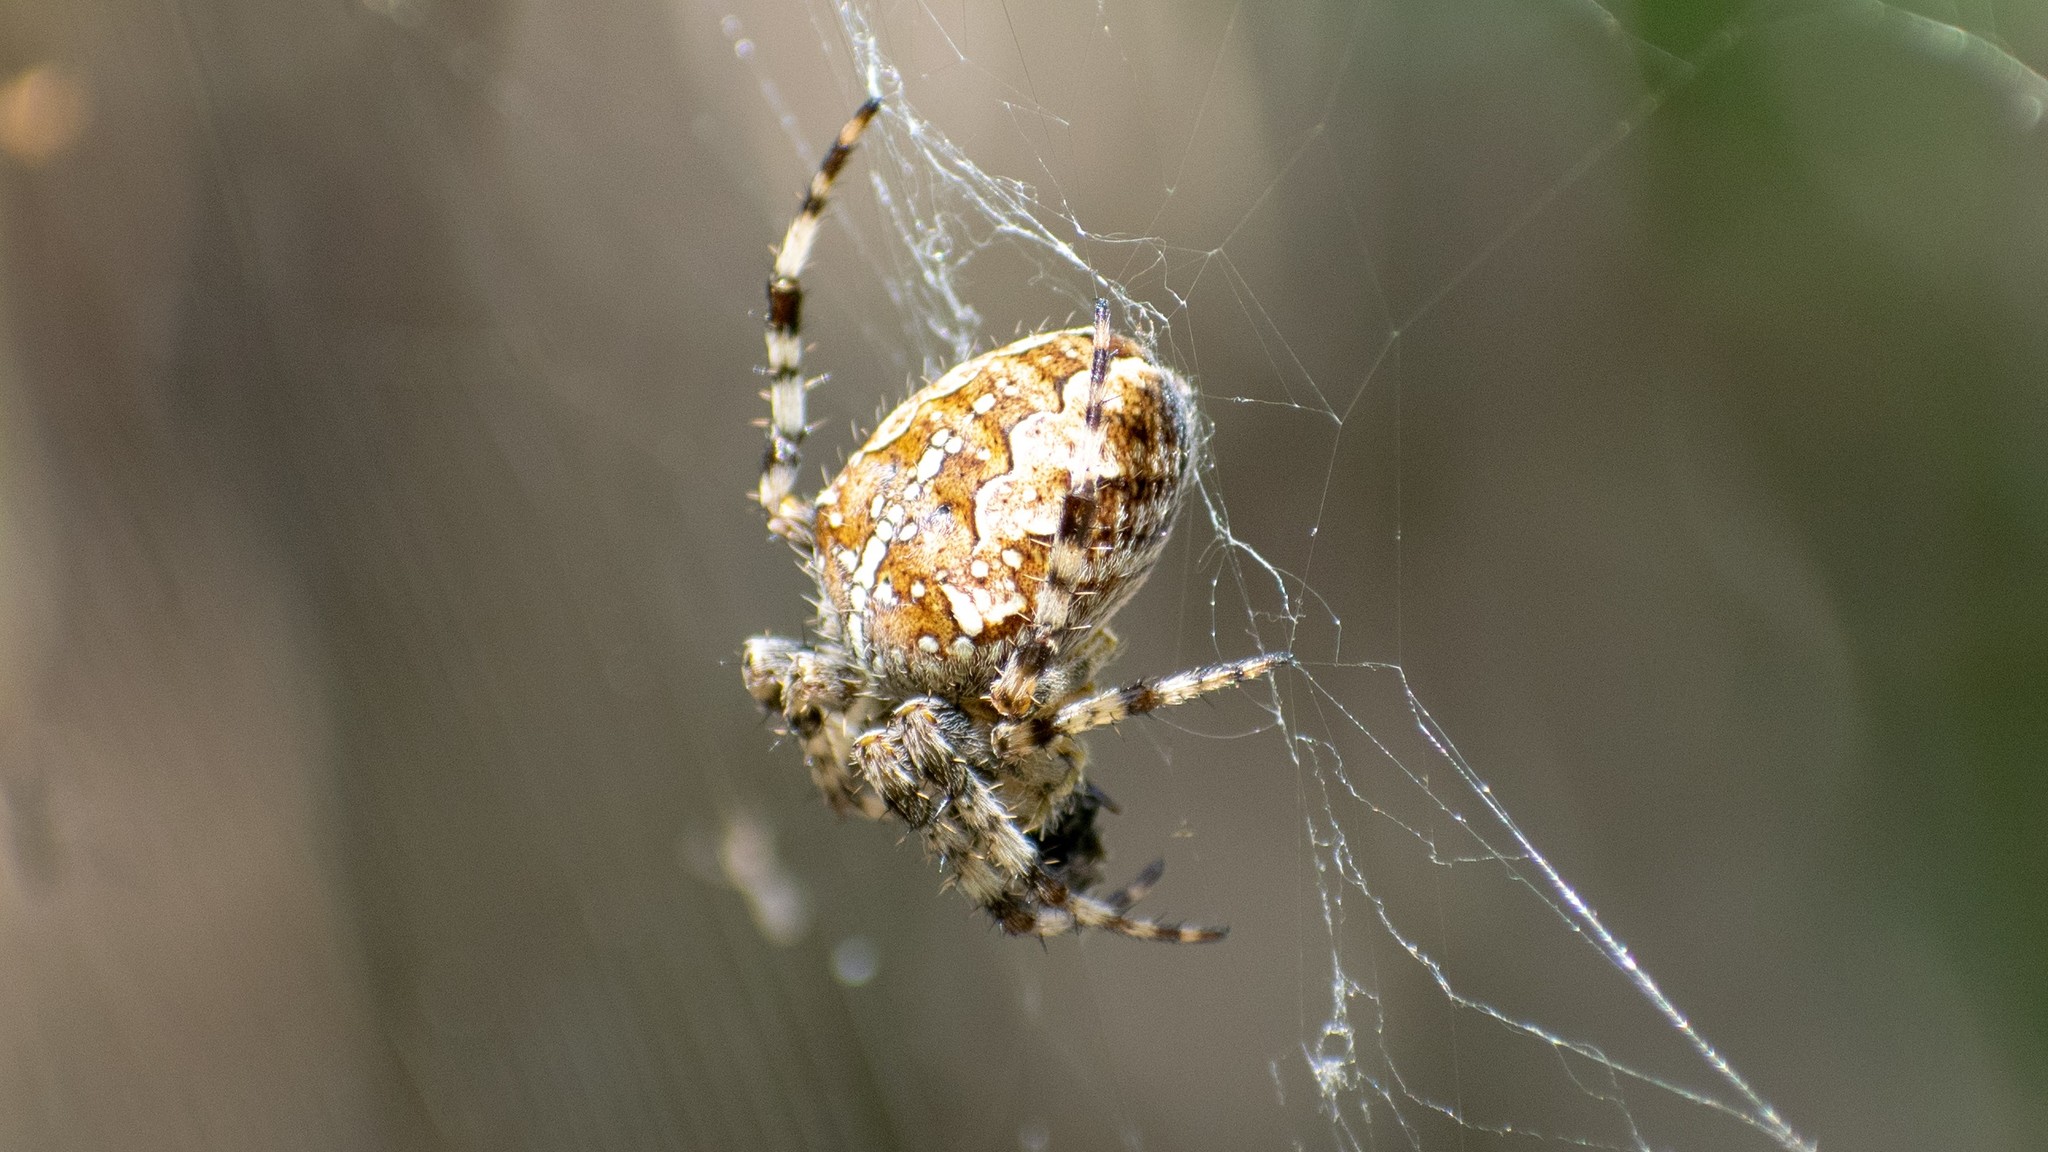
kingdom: Animalia
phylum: Arthropoda
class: Arachnida
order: Araneae
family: Araneidae
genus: Araneus
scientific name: Araneus diadematus
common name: Cross orbweaver
